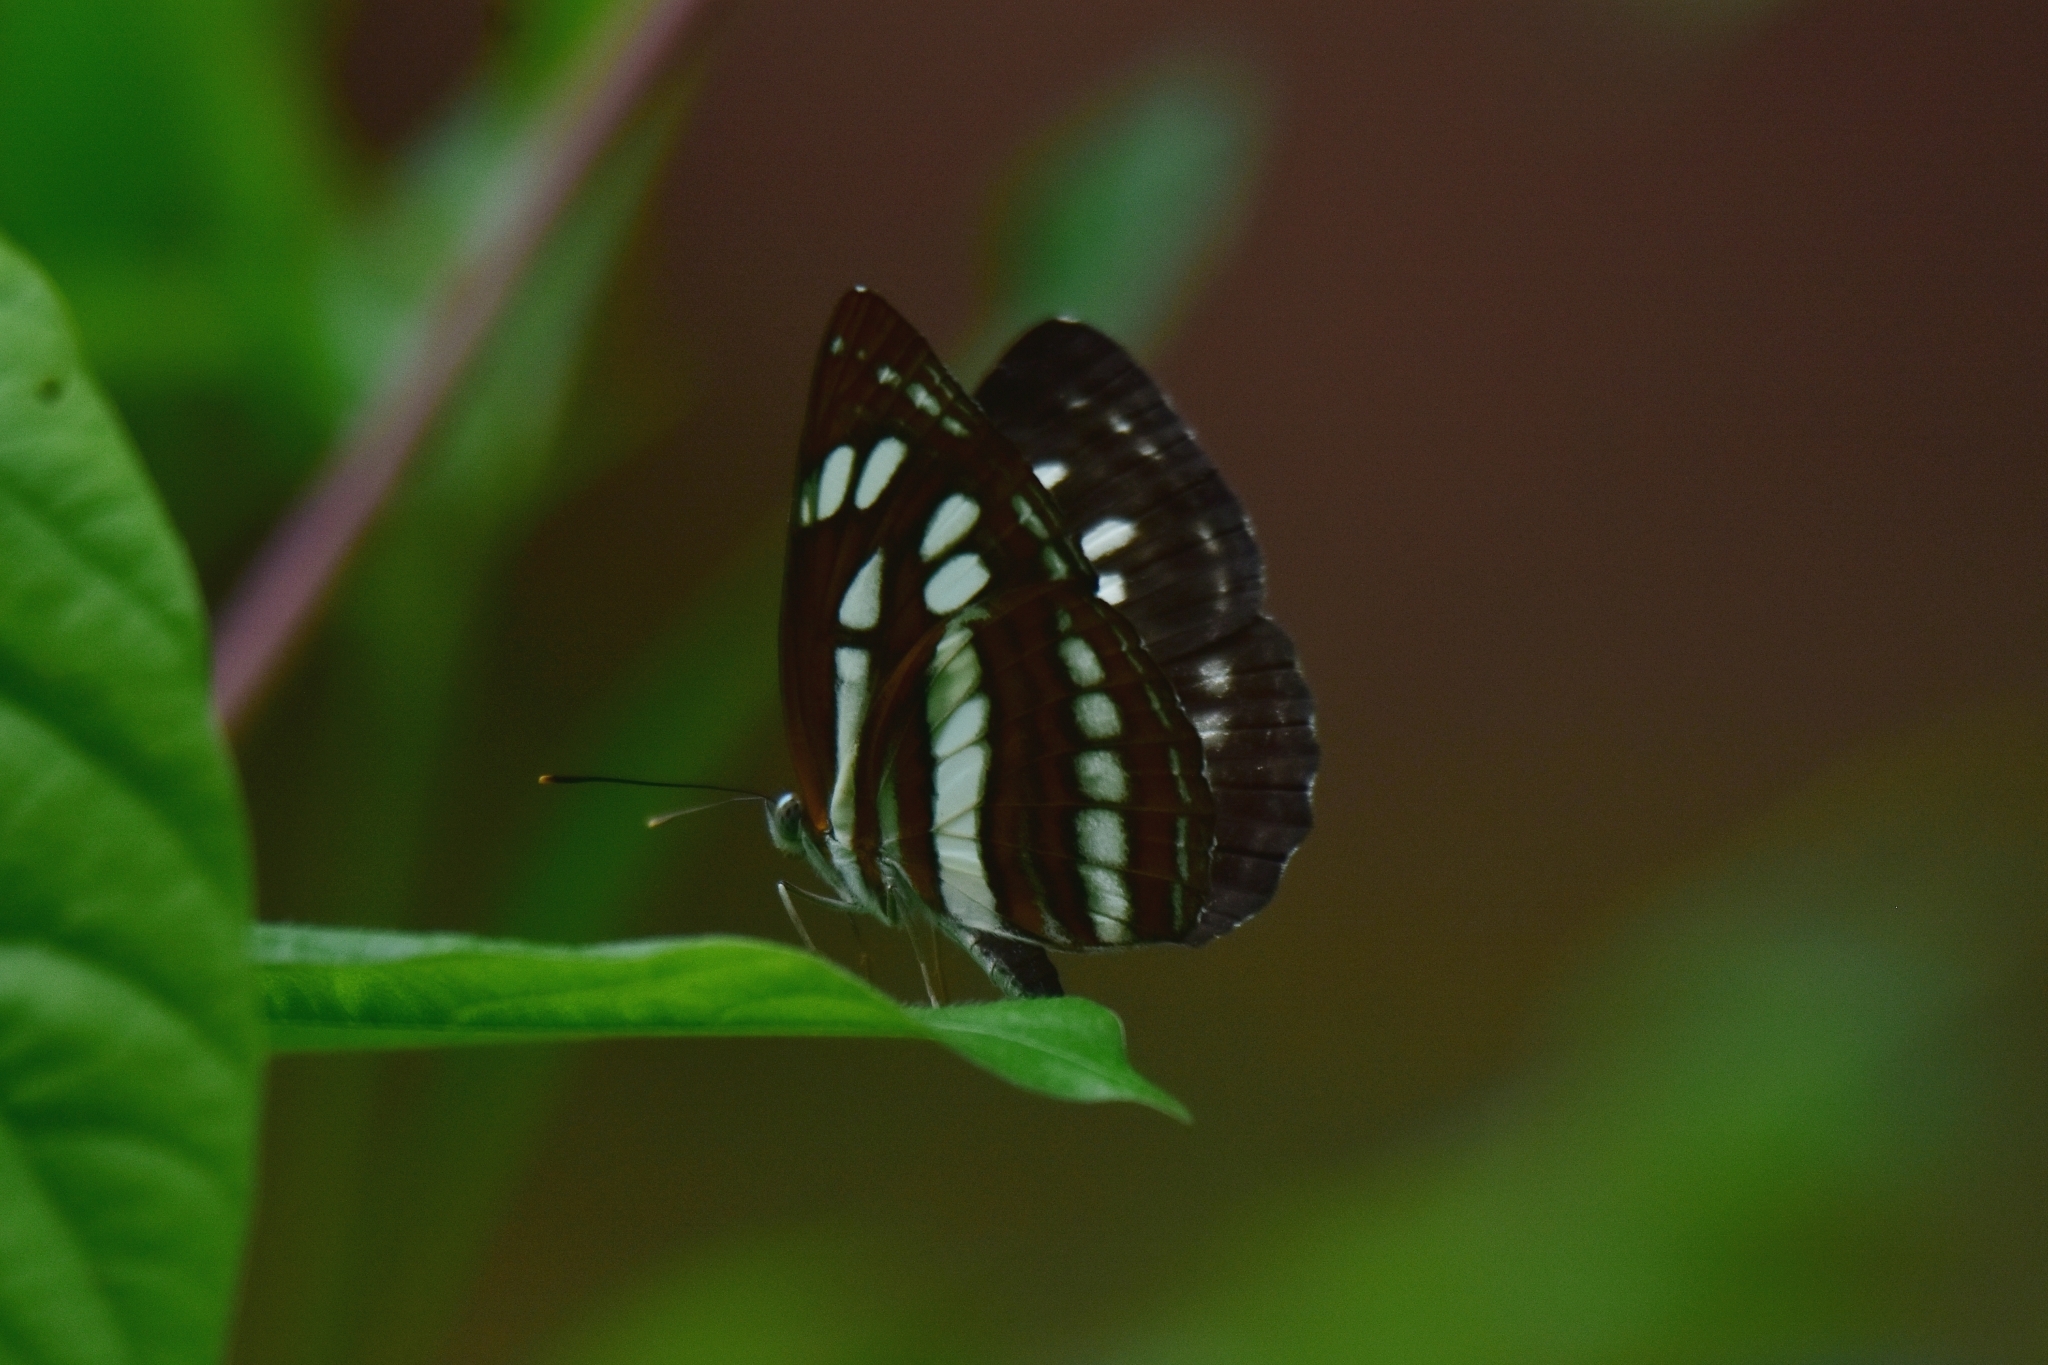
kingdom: Animalia
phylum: Arthropoda
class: Insecta
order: Lepidoptera
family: Nymphalidae
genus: Neptis
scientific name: Neptis hylas
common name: Common sailer
